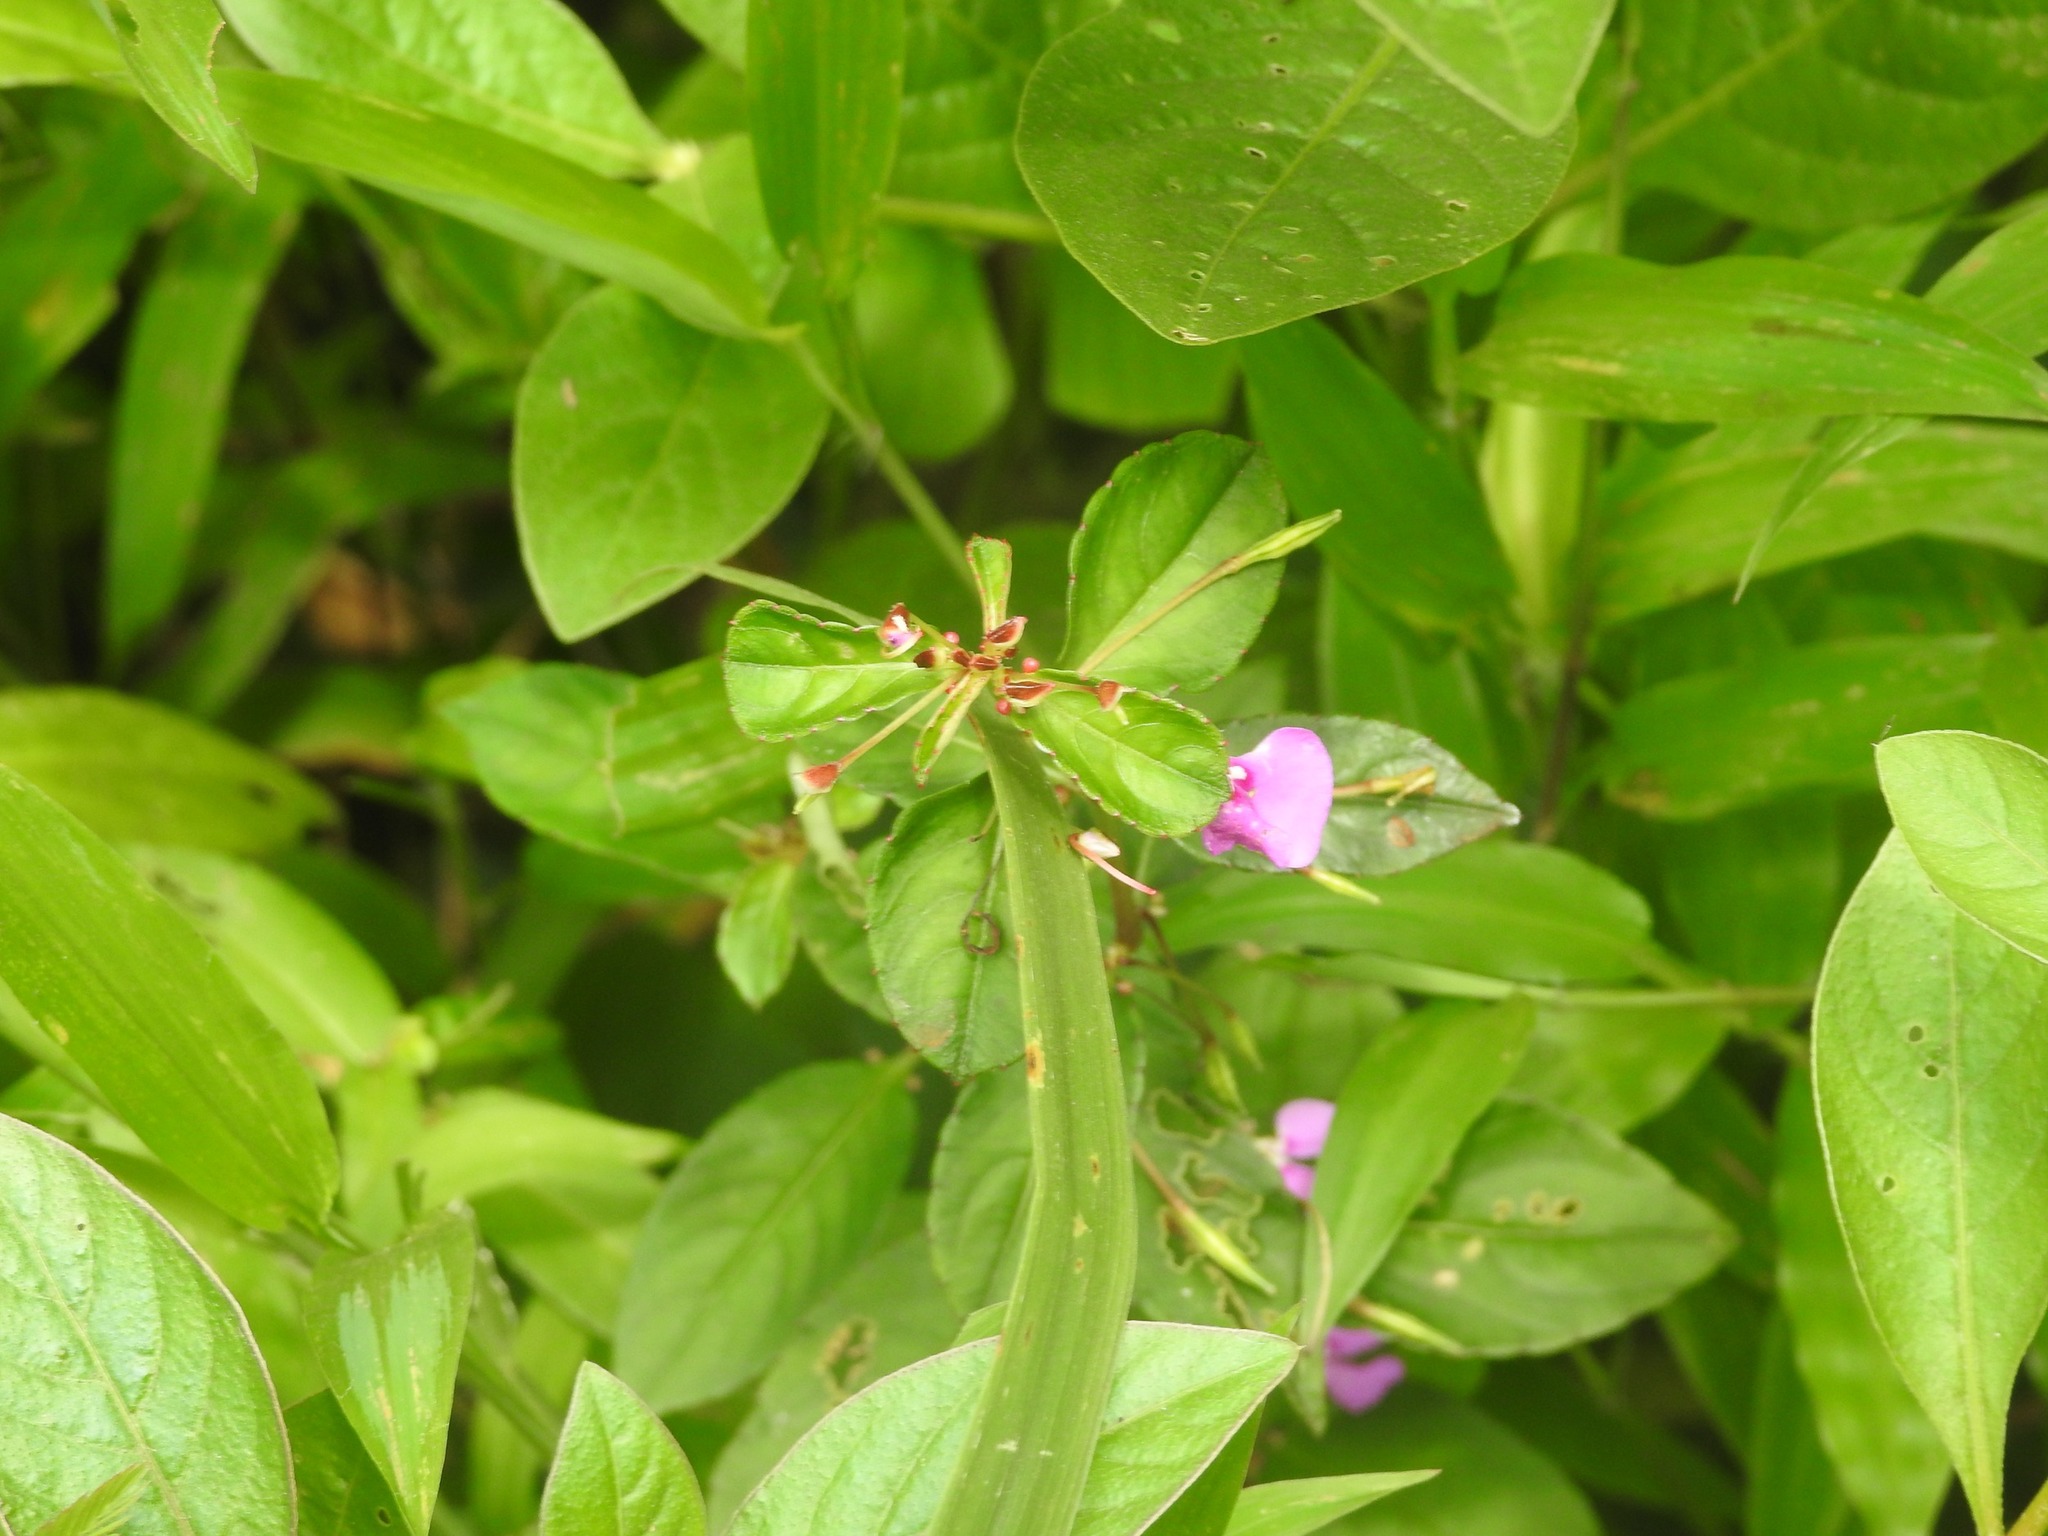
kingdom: Plantae
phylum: Tracheophyta
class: Magnoliopsida
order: Ericales
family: Balsaminaceae
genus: Impatiens
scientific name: Impatiens minor
